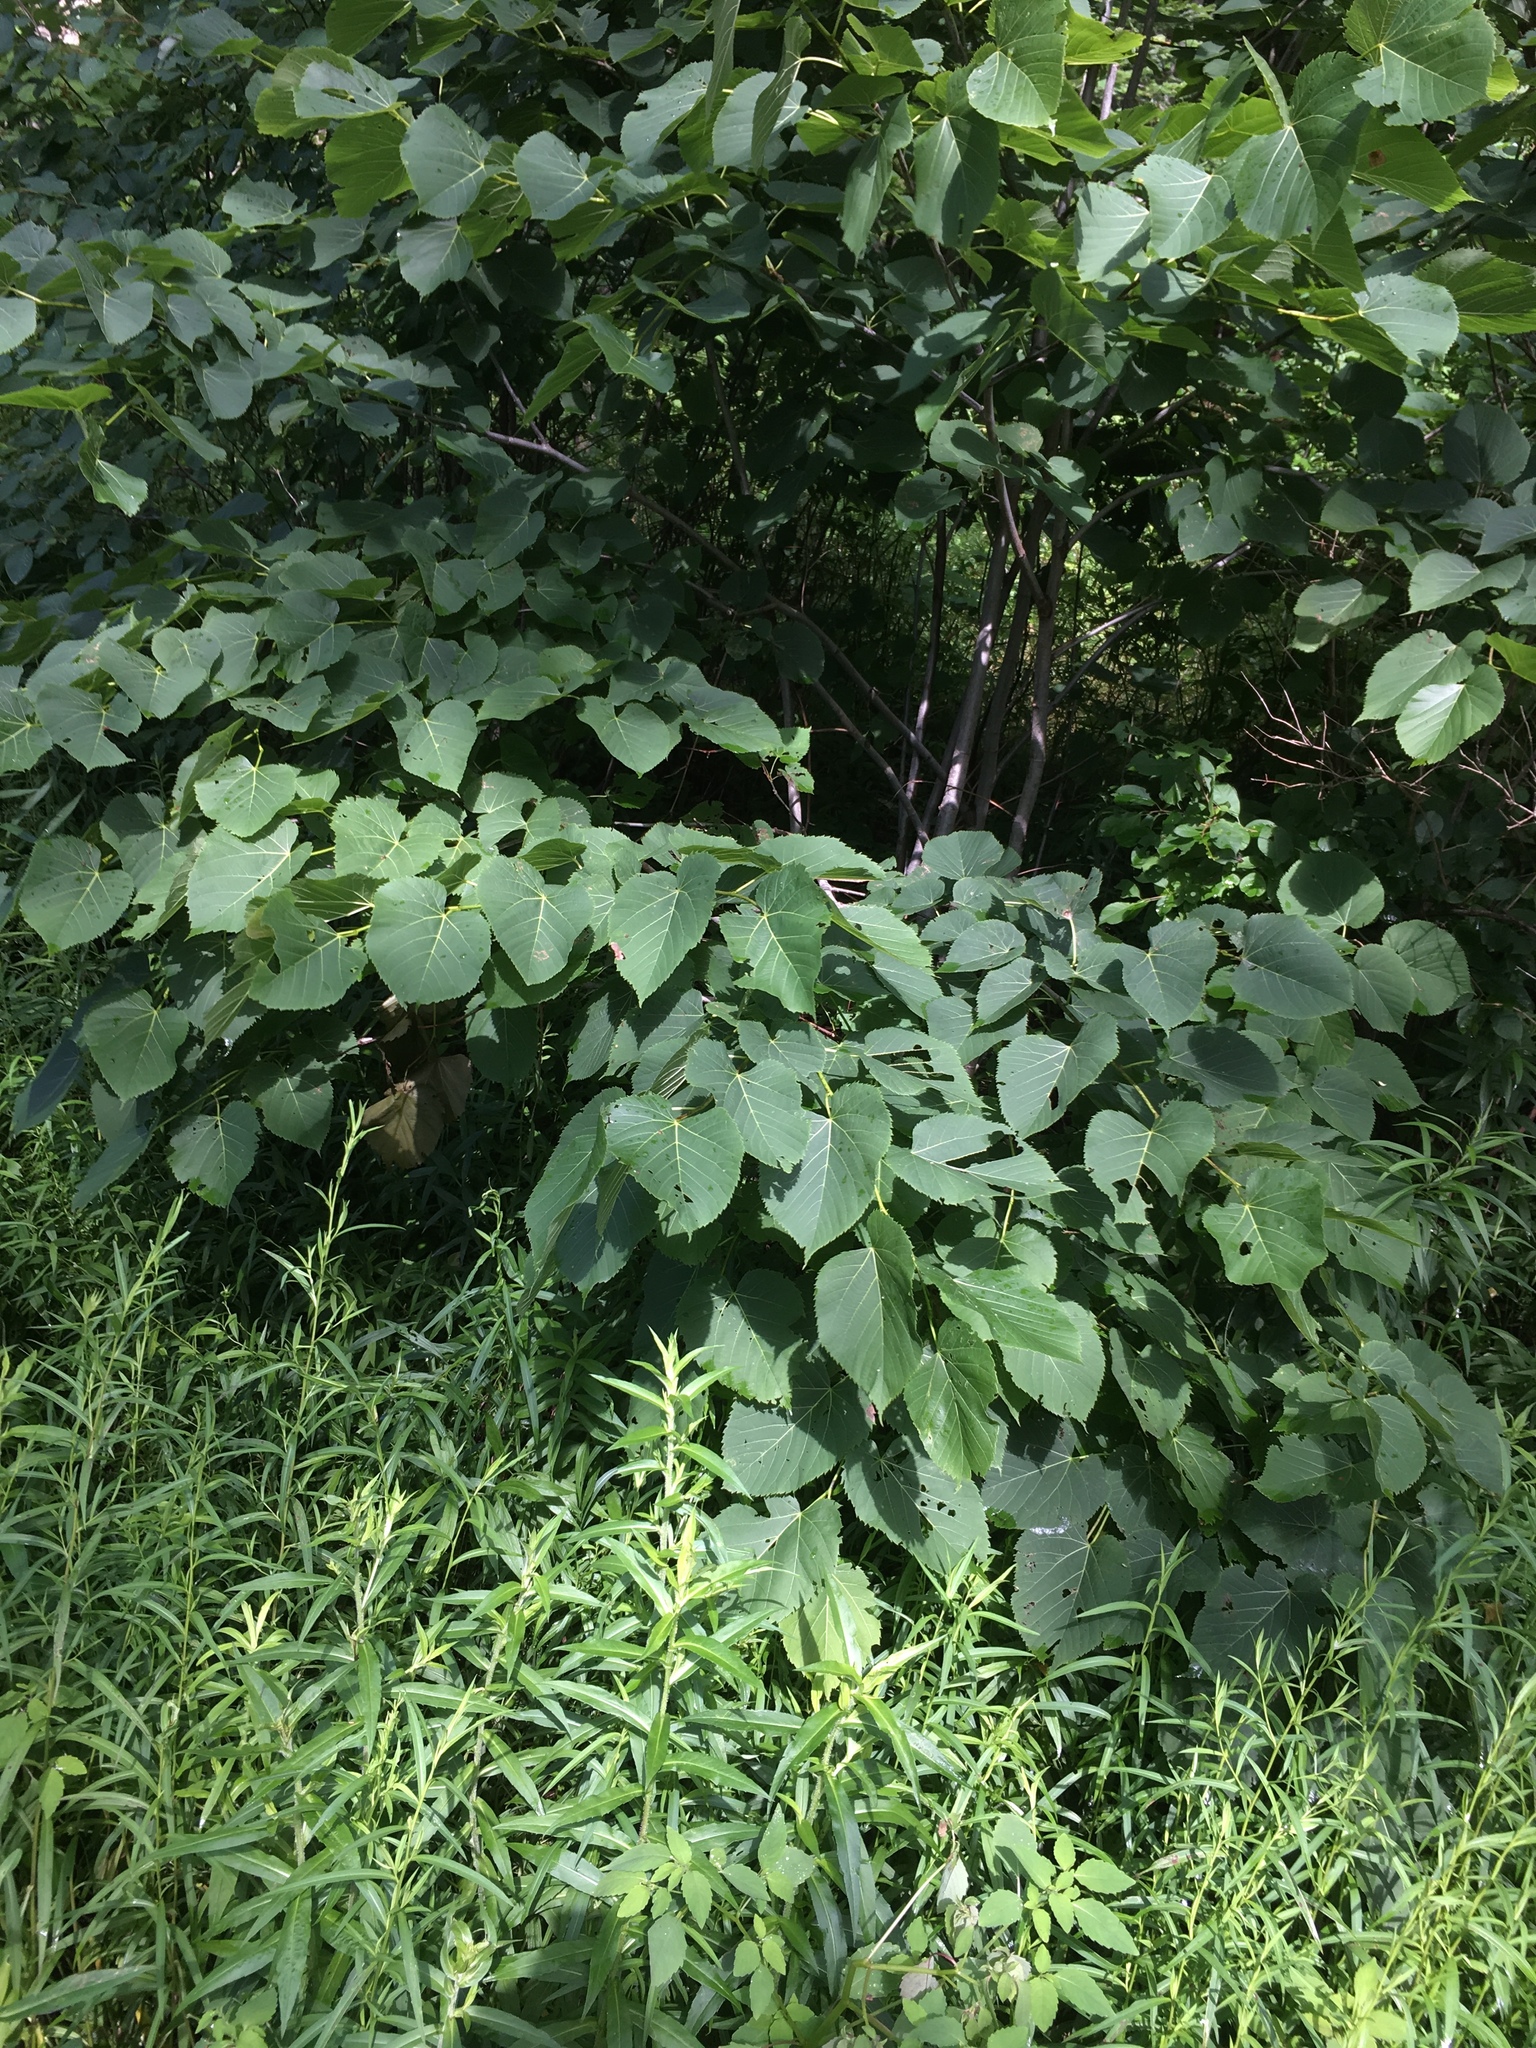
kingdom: Plantae
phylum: Tracheophyta
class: Magnoliopsida
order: Malvales
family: Malvaceae
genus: Tilia
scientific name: Tilia americana
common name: Basswood
